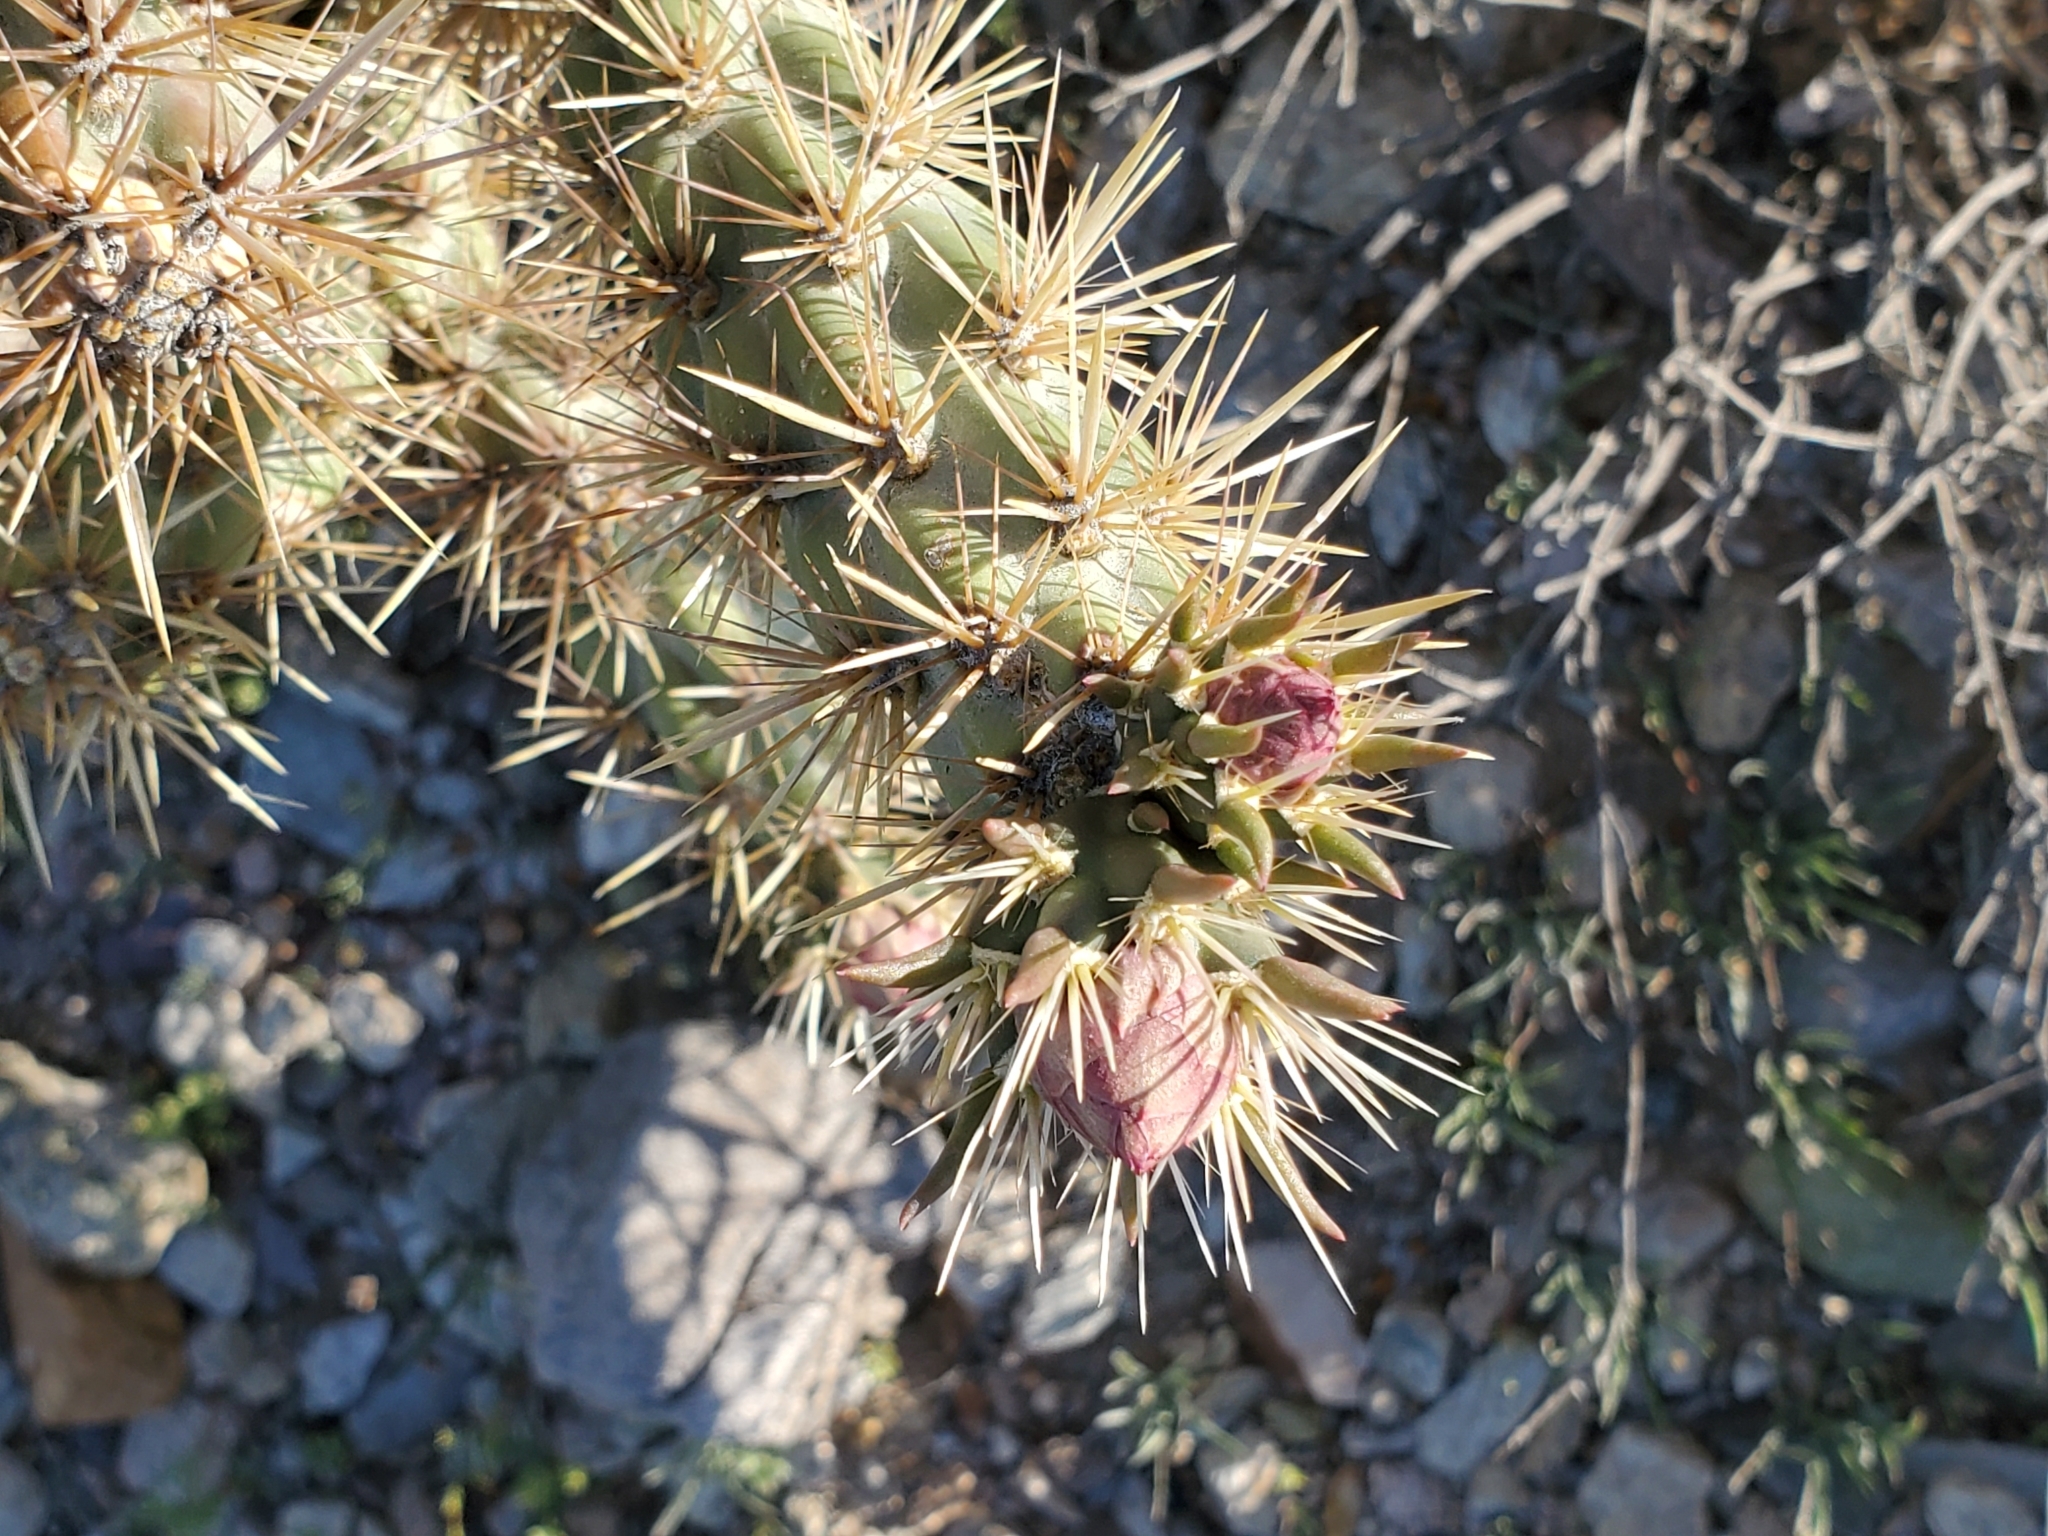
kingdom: Plantae
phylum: Tracheophyta
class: Magnoliopsida
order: Caryophyllales
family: Cactaceae
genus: Cylindropuntia
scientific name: Cylindropuntia acanthocarpa
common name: Buckhorn cholla
